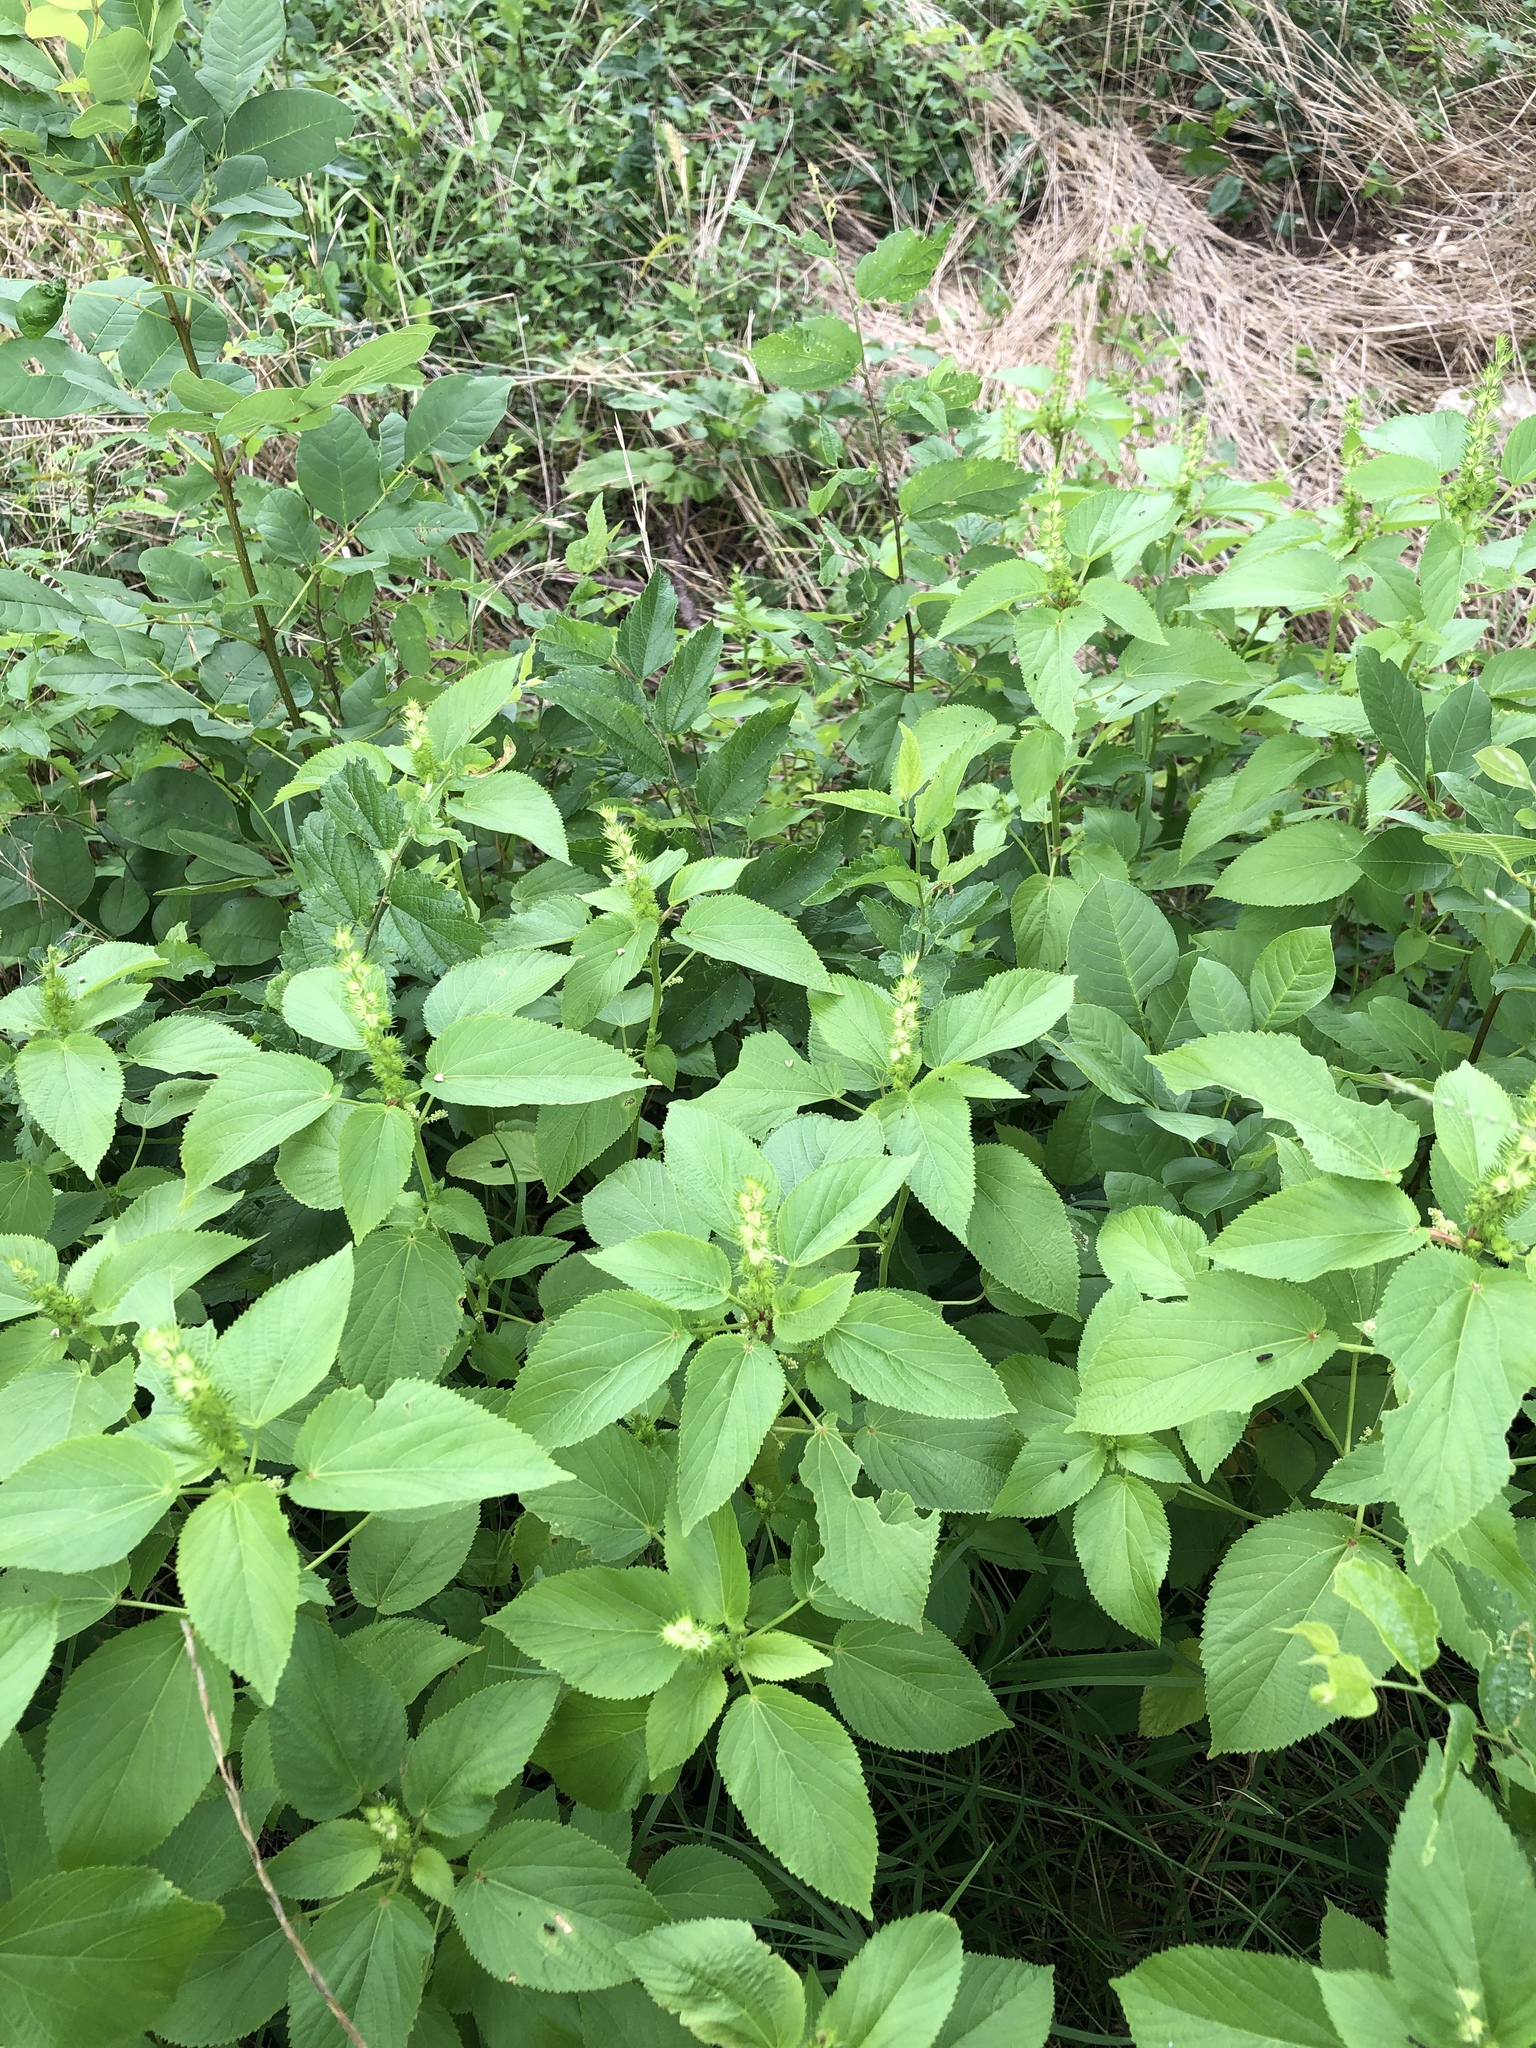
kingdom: Plantae
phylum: Tracheophyta
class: Magnoliopsida
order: Malpighiales
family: Euphorbiaceae
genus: Acalypha
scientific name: Acalypha ostryifolia
